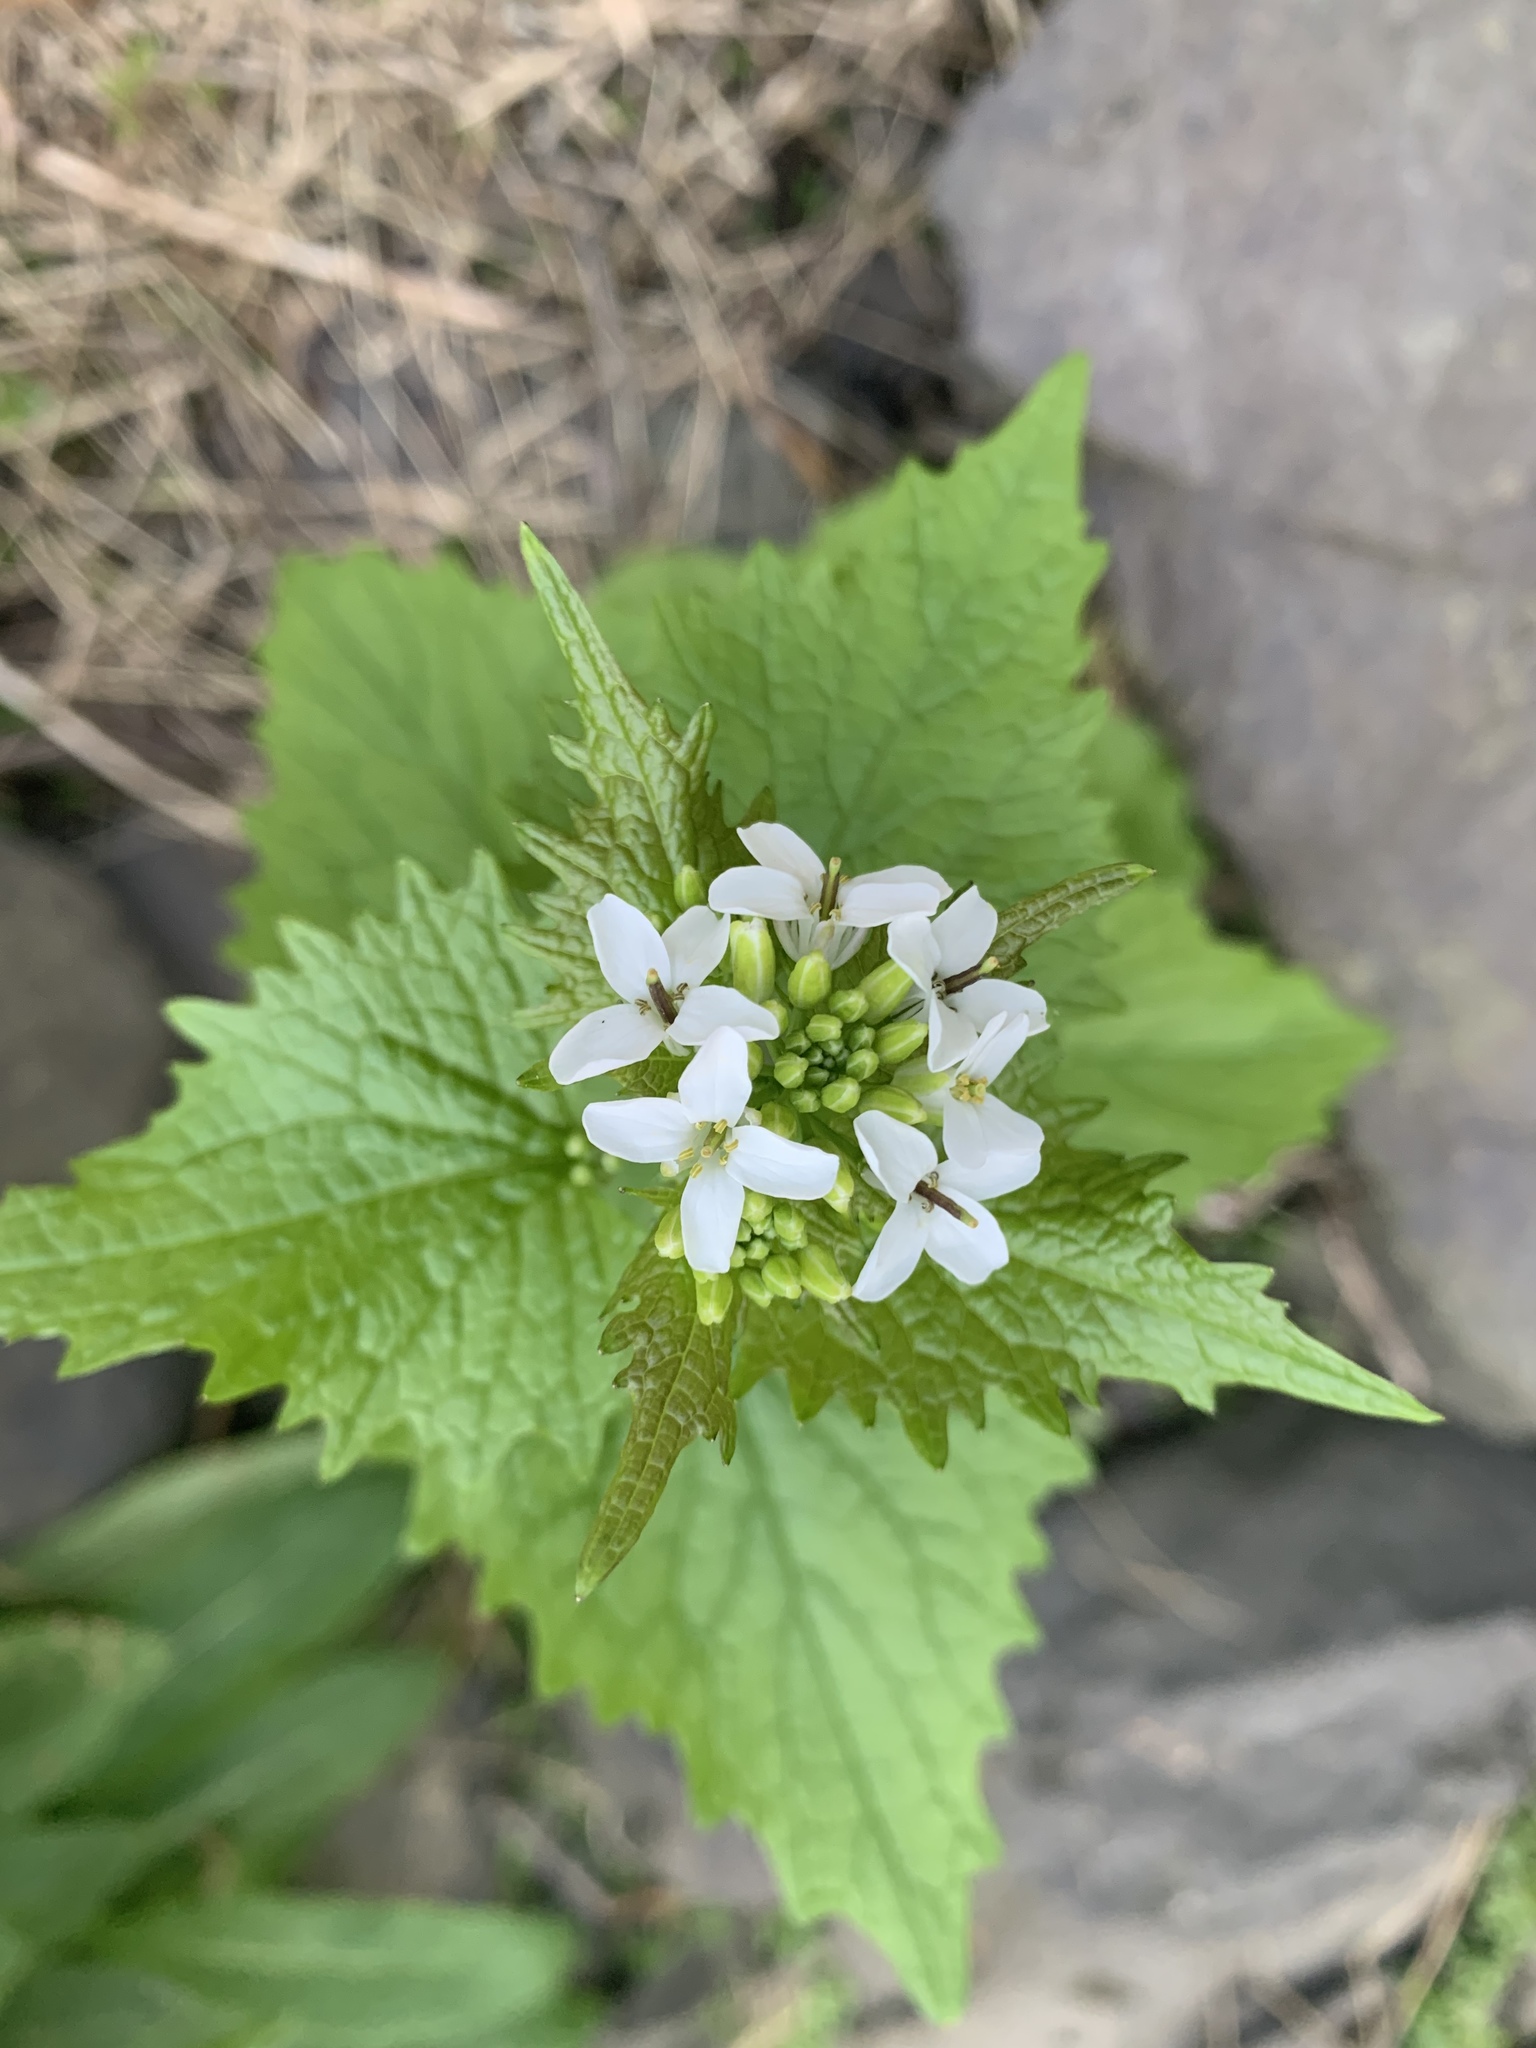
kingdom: Plantae
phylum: Tracheophyta
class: Magnoliopsida
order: Brassicales
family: Brassicaceae
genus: Alliaria
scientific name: Alliaria petiolata
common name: Garlic mustard
